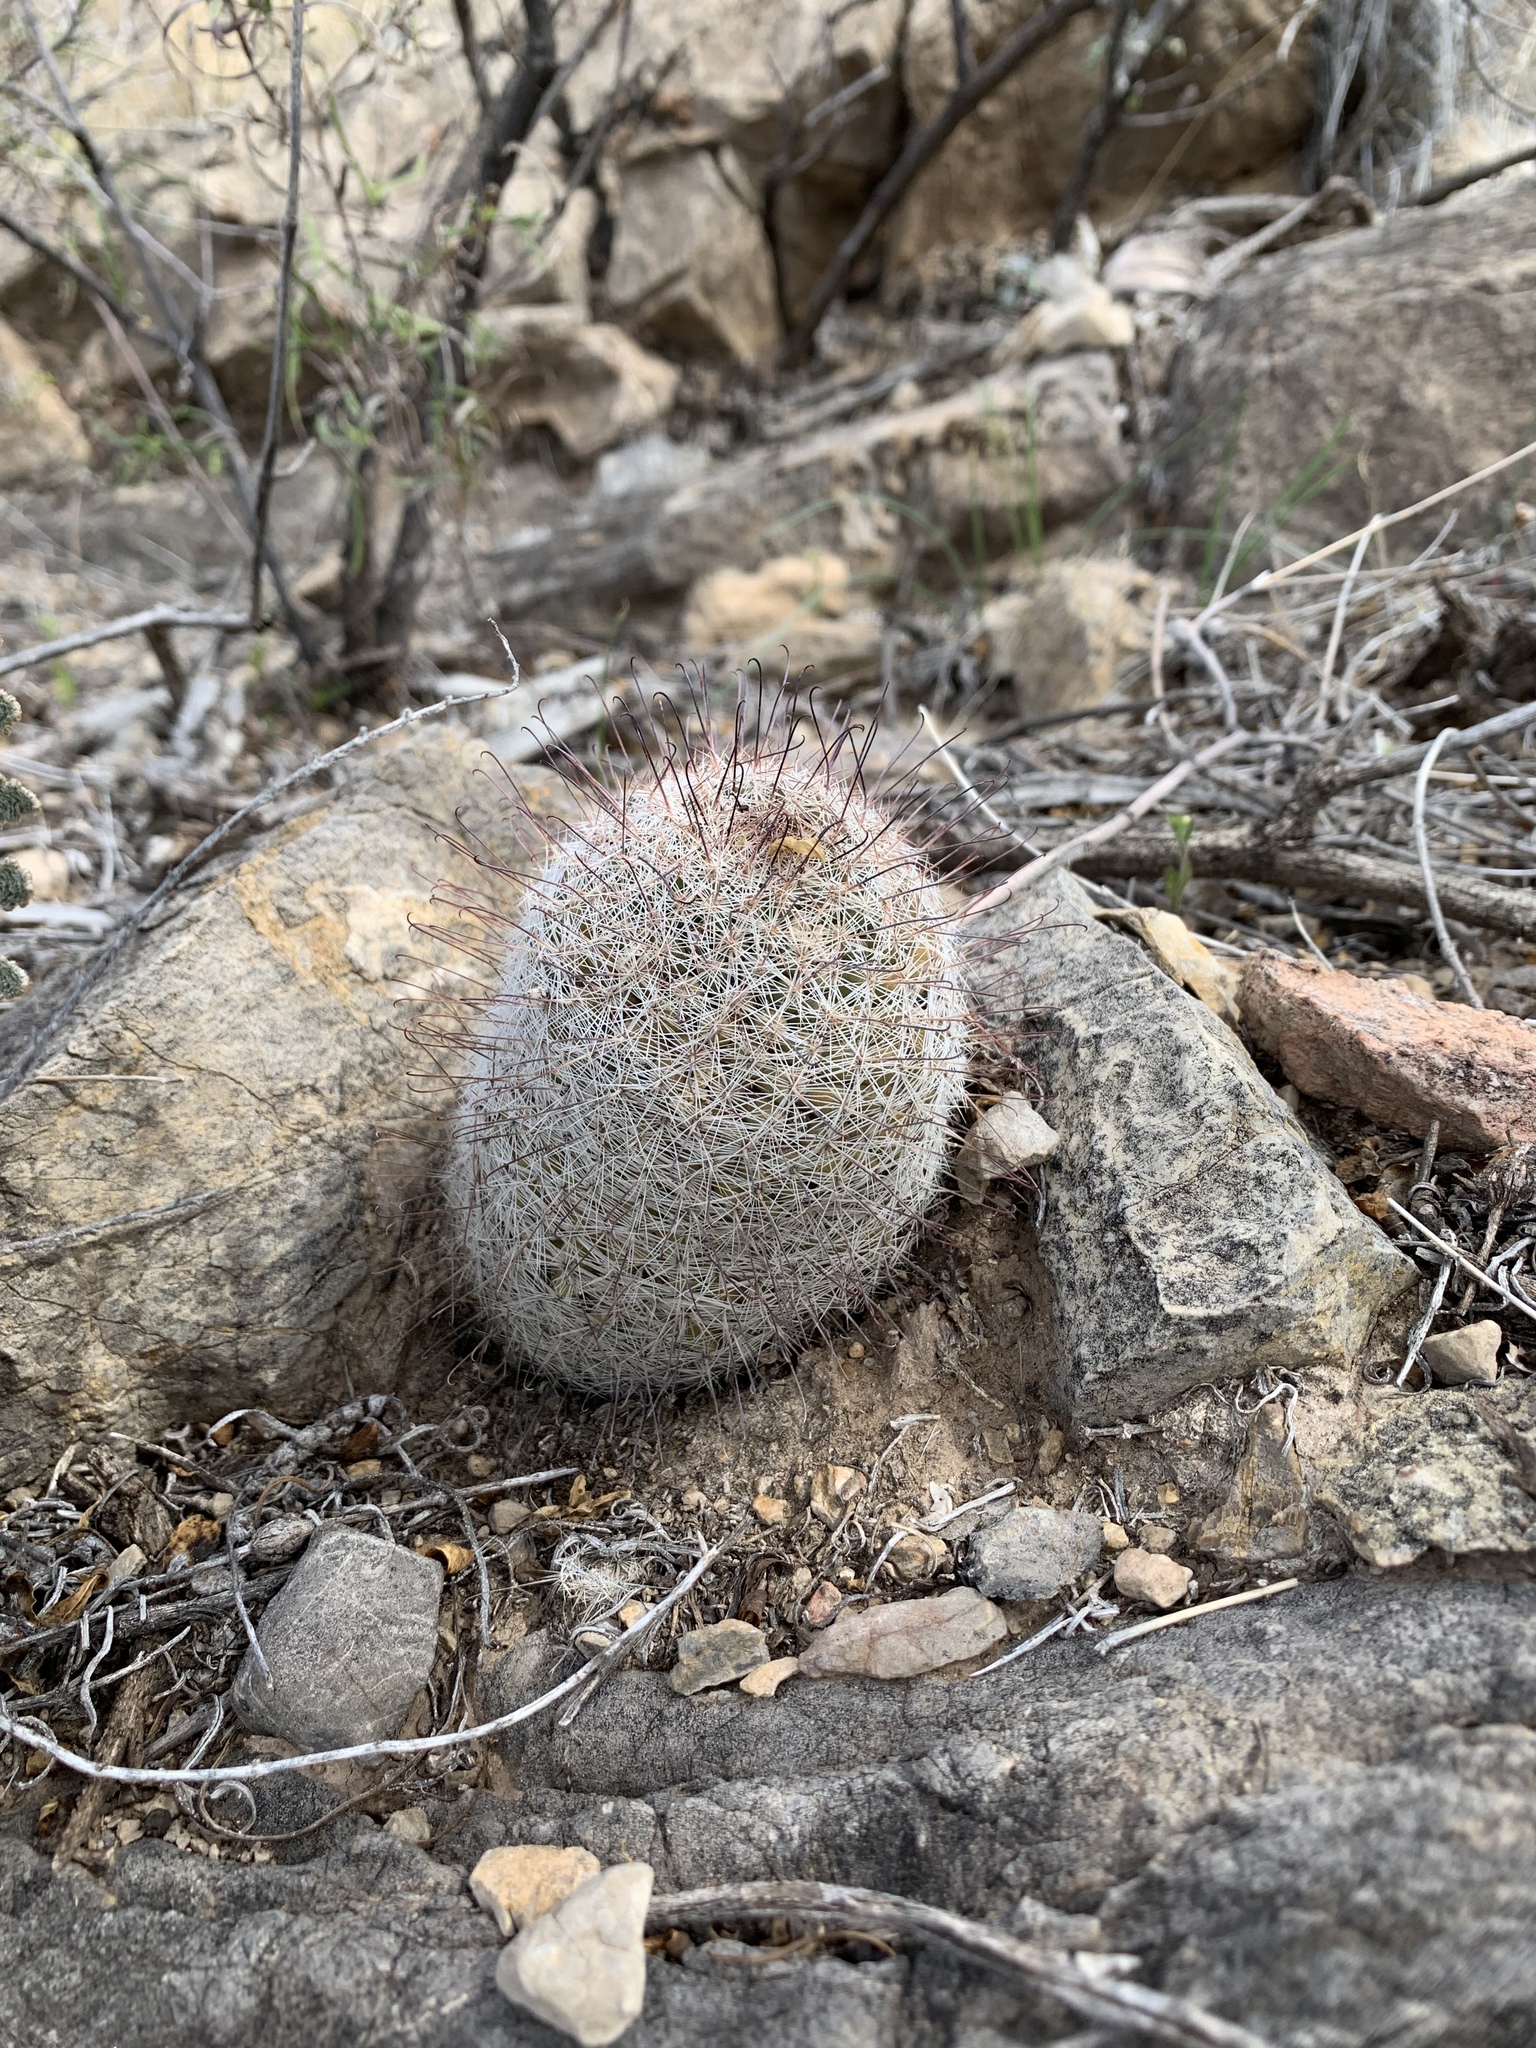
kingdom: Plantae
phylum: Tracheophyta
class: Magnoliopsida
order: Caryophyllales
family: Cactaceae
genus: Cochemiea
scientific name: Cochemiea grahamii
